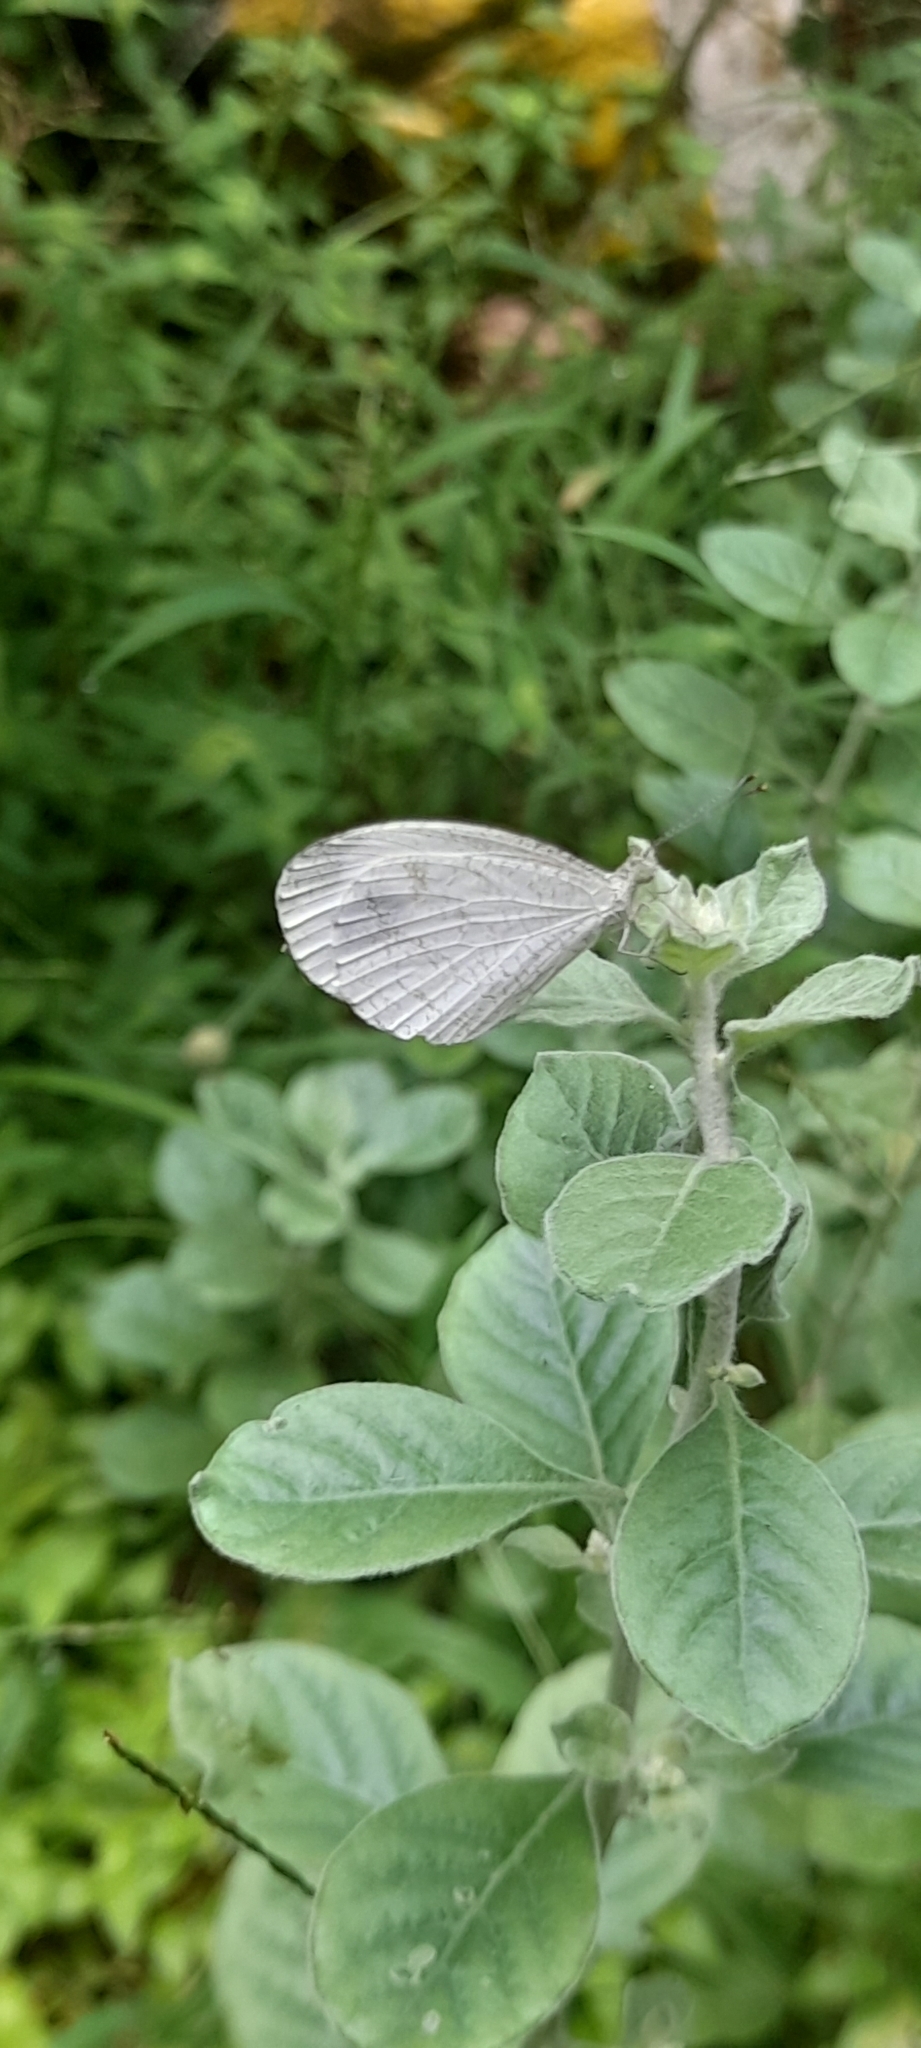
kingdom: Animalia
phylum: Arthropoda
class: Insecta
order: Lepidoptera
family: Pieridae
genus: Leptosia
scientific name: Leptosia nina
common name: Psyche
